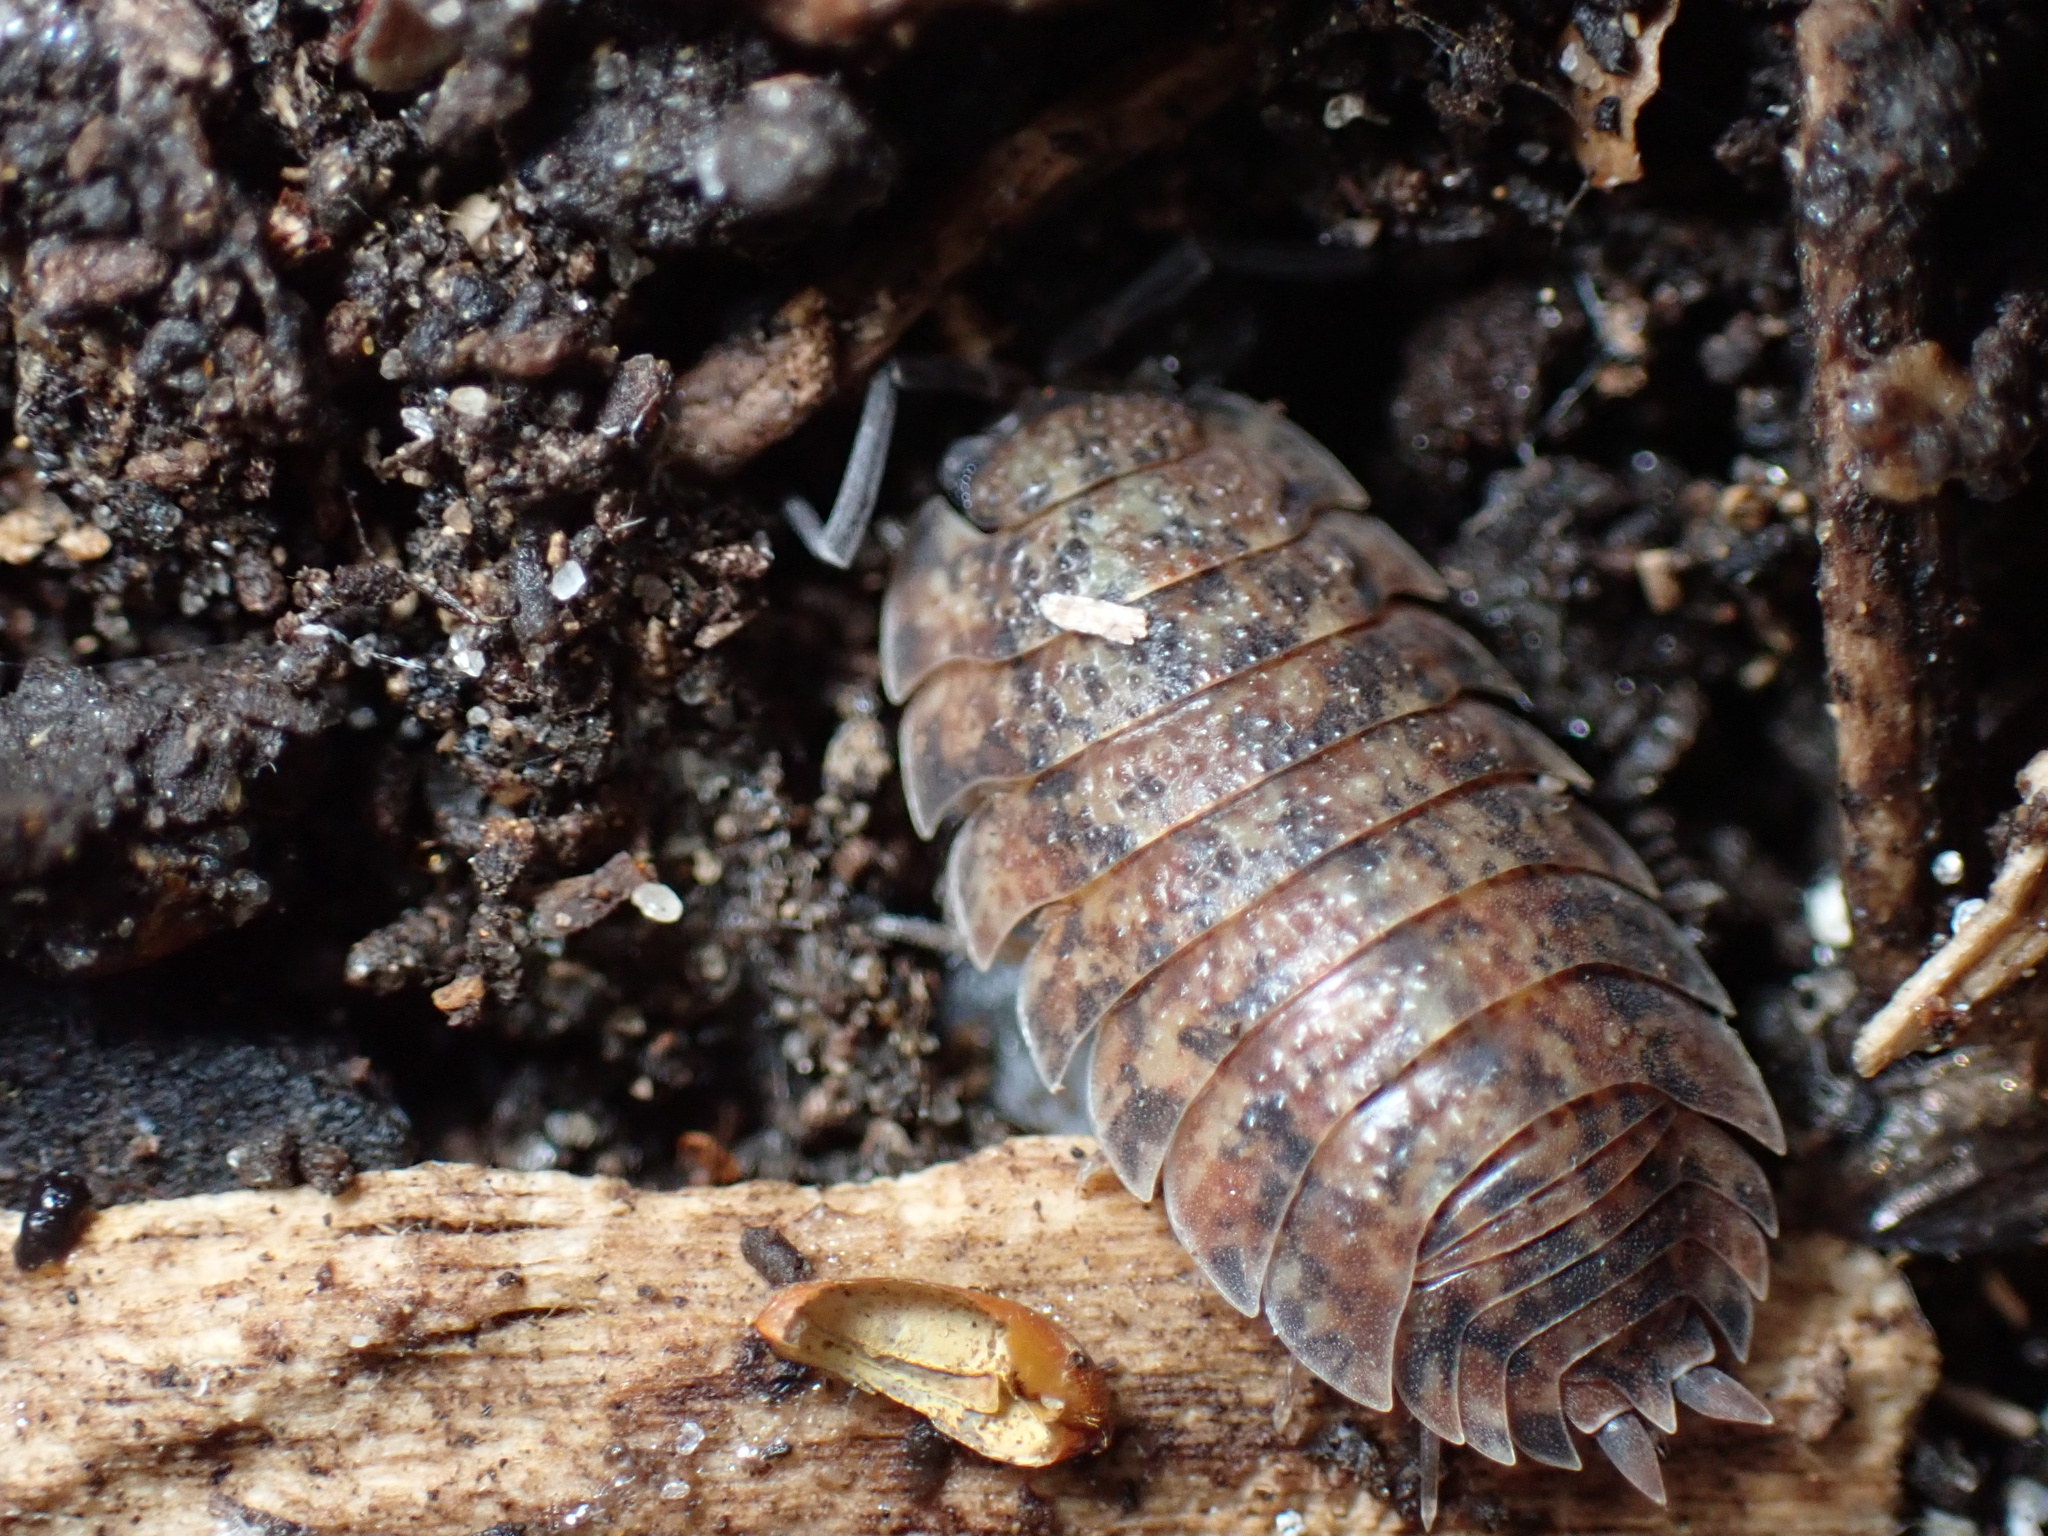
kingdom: Animalia
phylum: Arthropoda
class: Malacostraca
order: Isopoda
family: Porcellionidae
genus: Porcellio
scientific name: Porcellio scaber
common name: Common rough woodlouse
